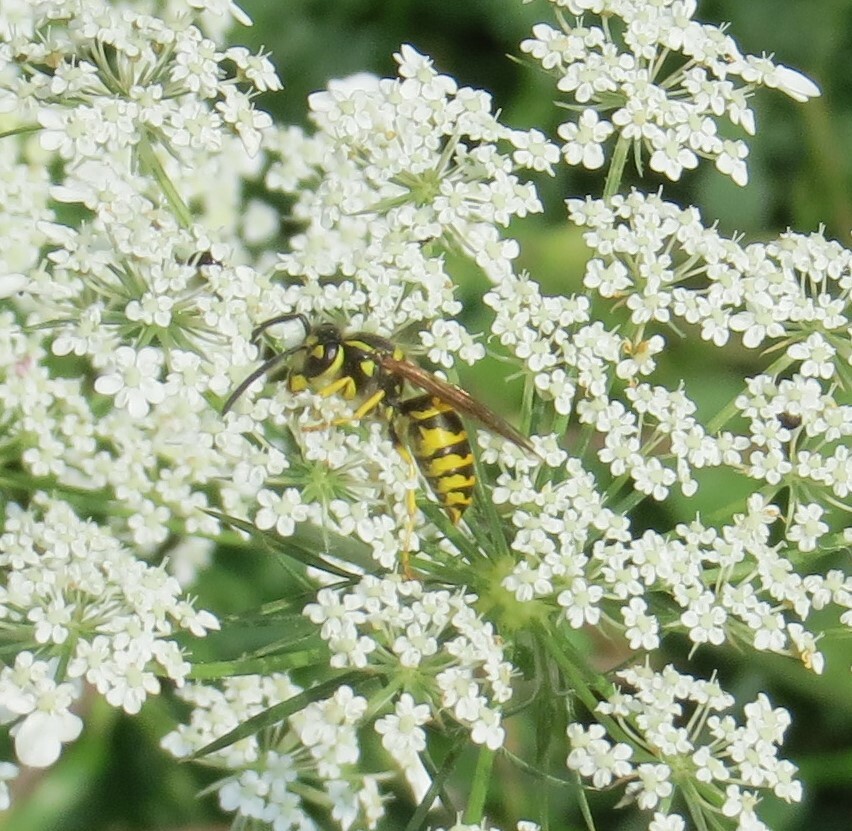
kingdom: Animalia
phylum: Arthropoda
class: Insecta
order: Hymenoptera
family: Vespidae
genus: Vespula
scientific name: Vespula maculifrons
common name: Eastern yellowjacket
